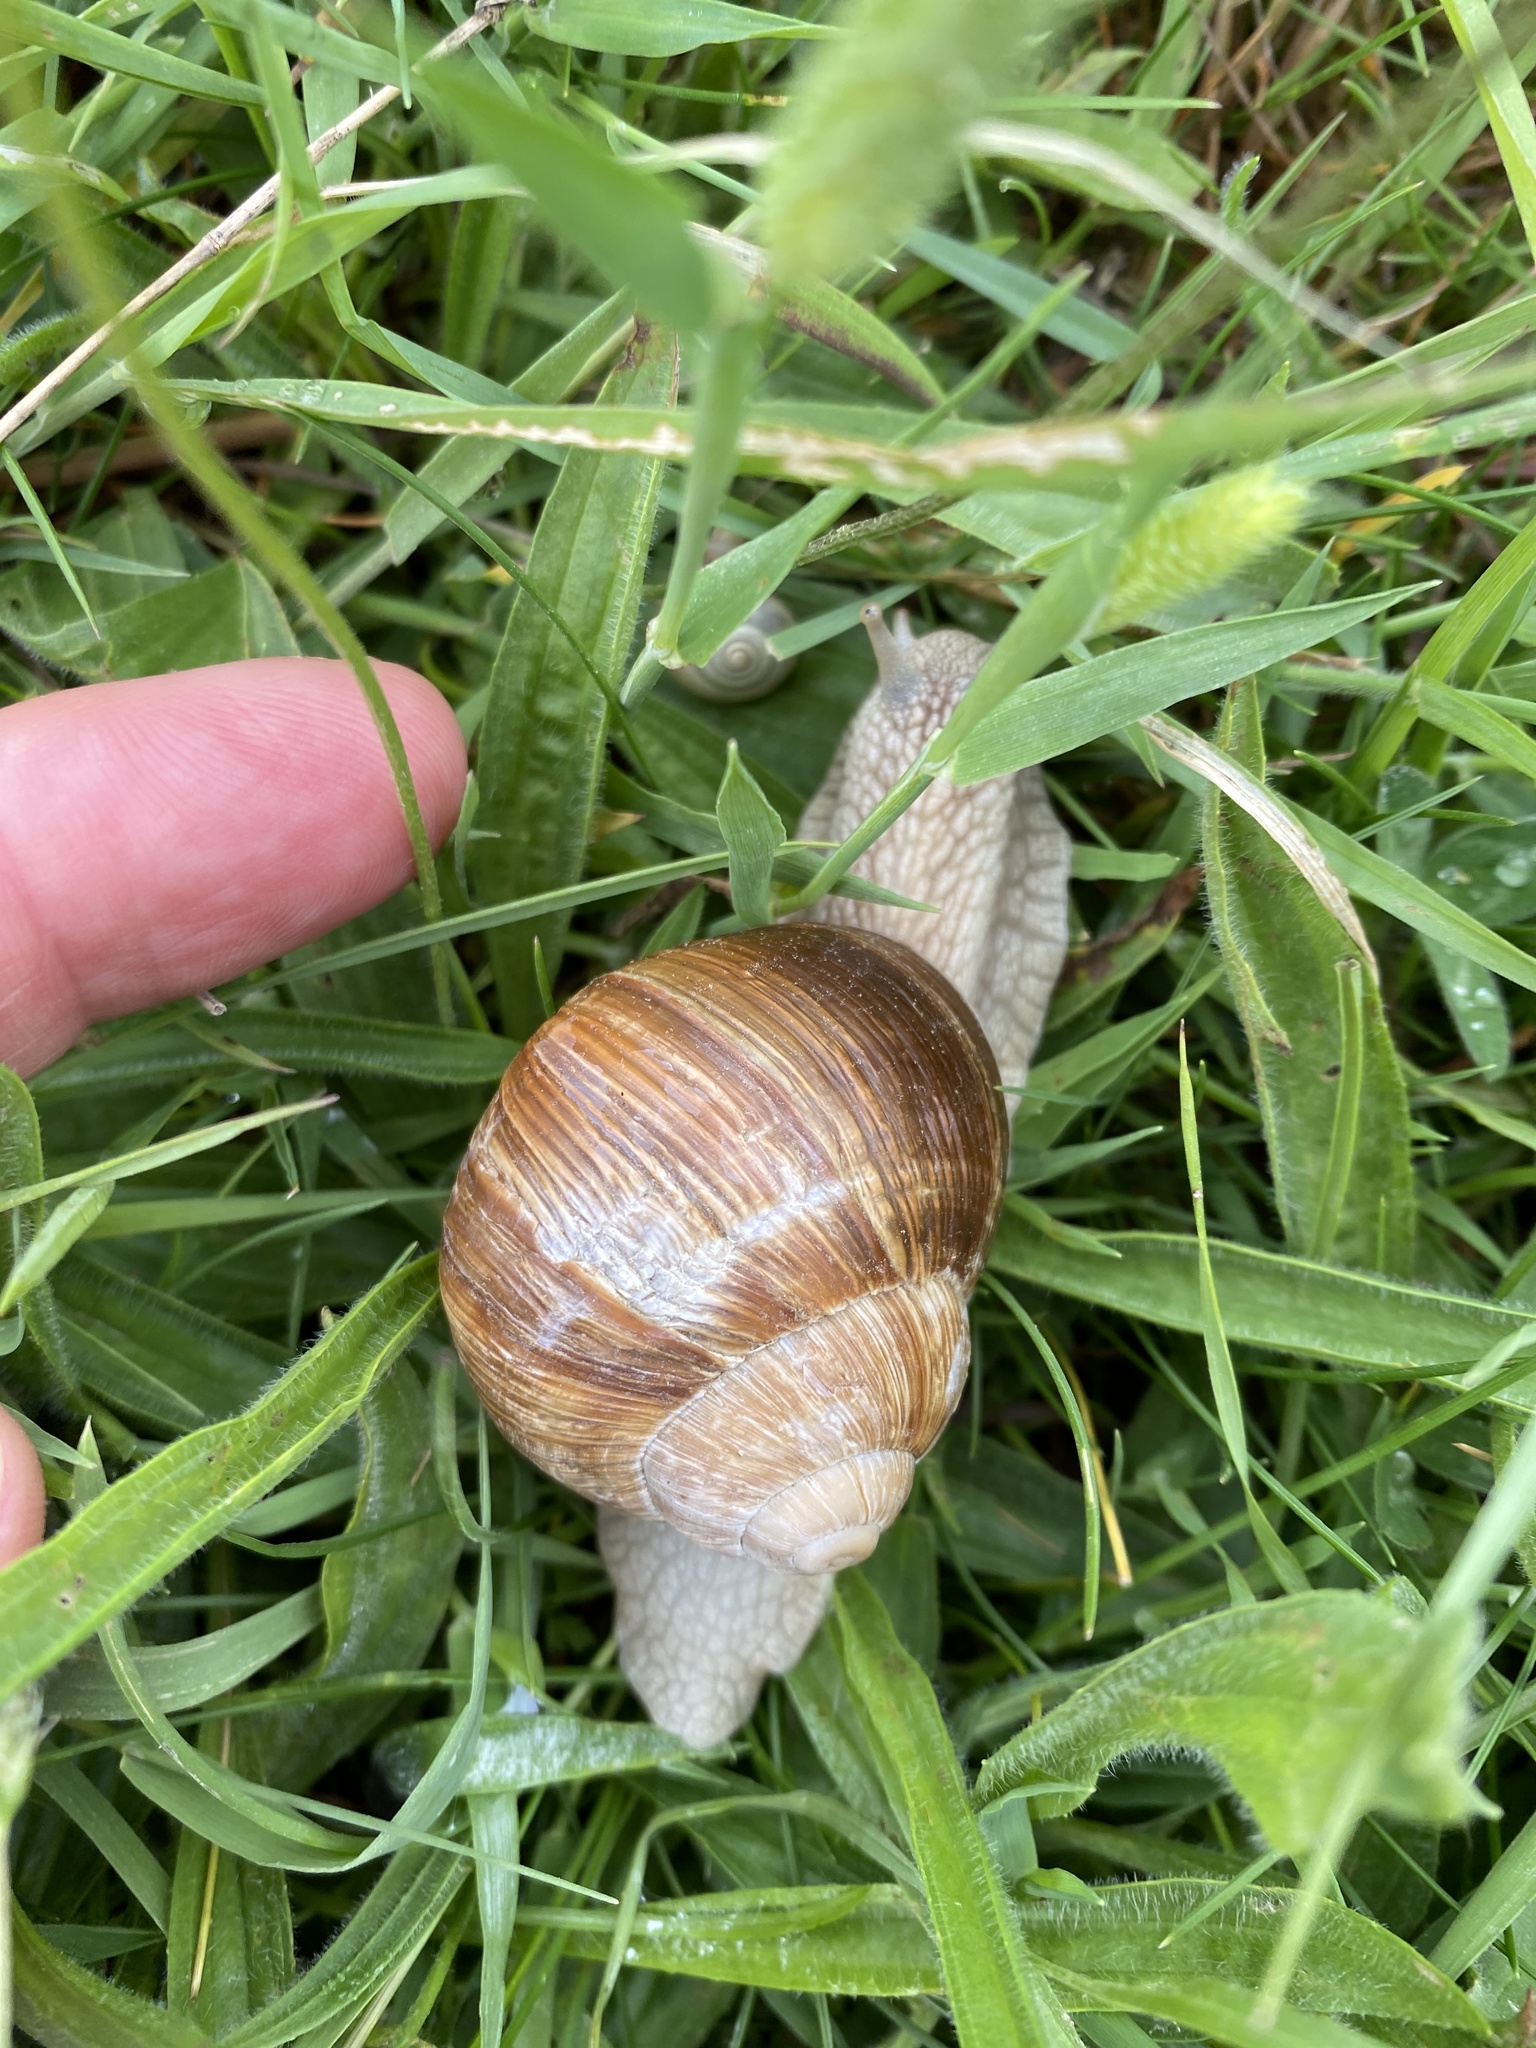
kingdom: Animalia
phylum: Mollusca
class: Gastropoda
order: Stylommatophora
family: Helicidae
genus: Helix
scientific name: Helix pomatia
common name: Roman snail
